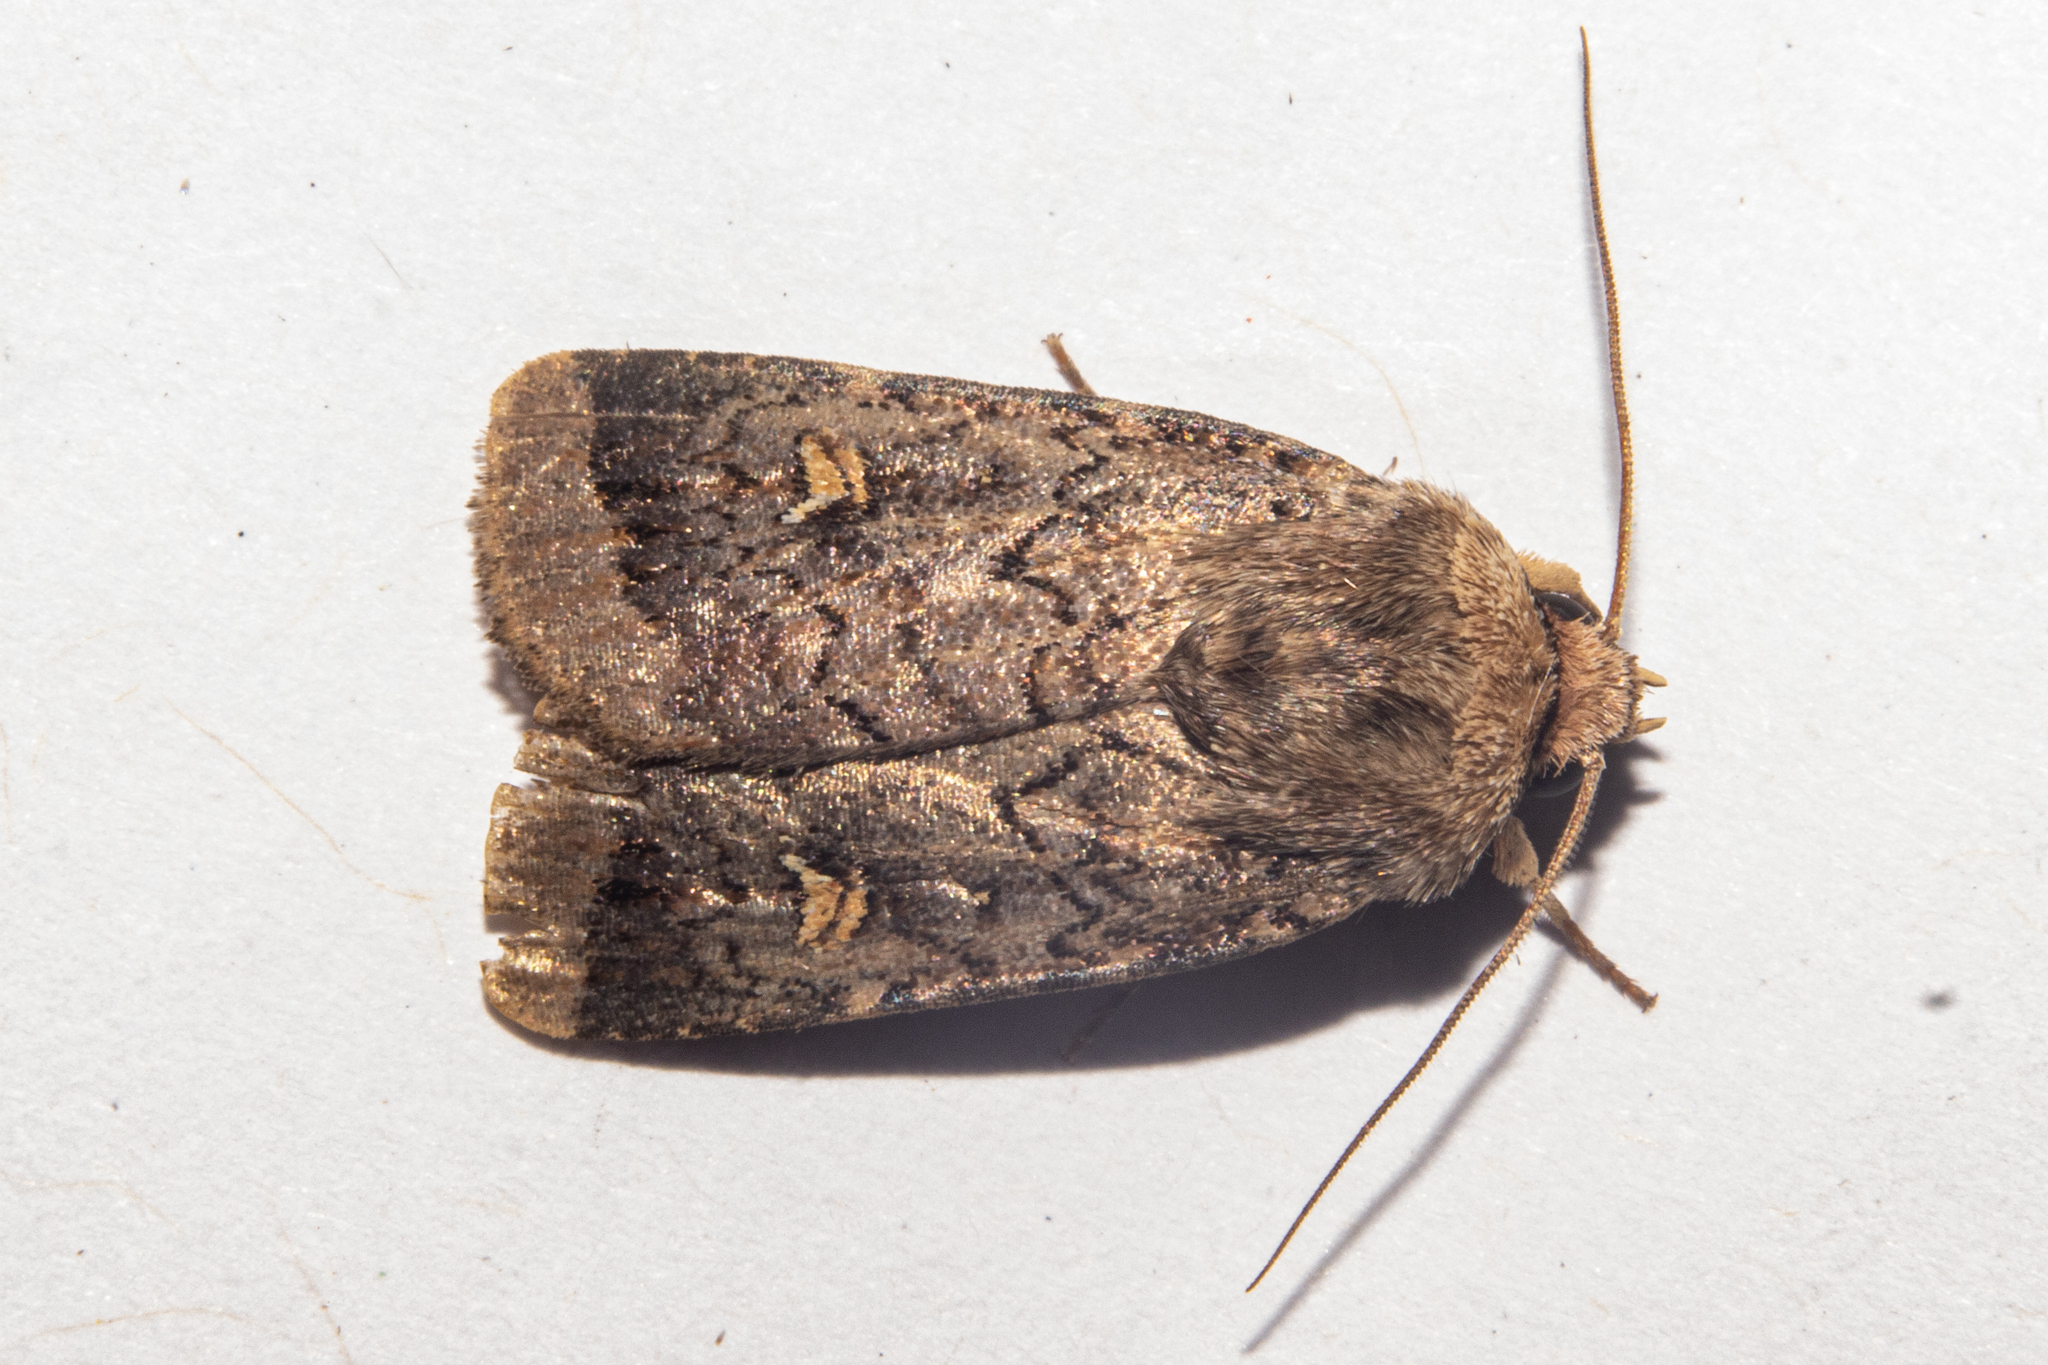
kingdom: Animalia
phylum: Arthropoda
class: Insecta
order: Lepidoptera
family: Noctuidae
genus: Proteuxoa
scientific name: Proteuxoa tetronycha
